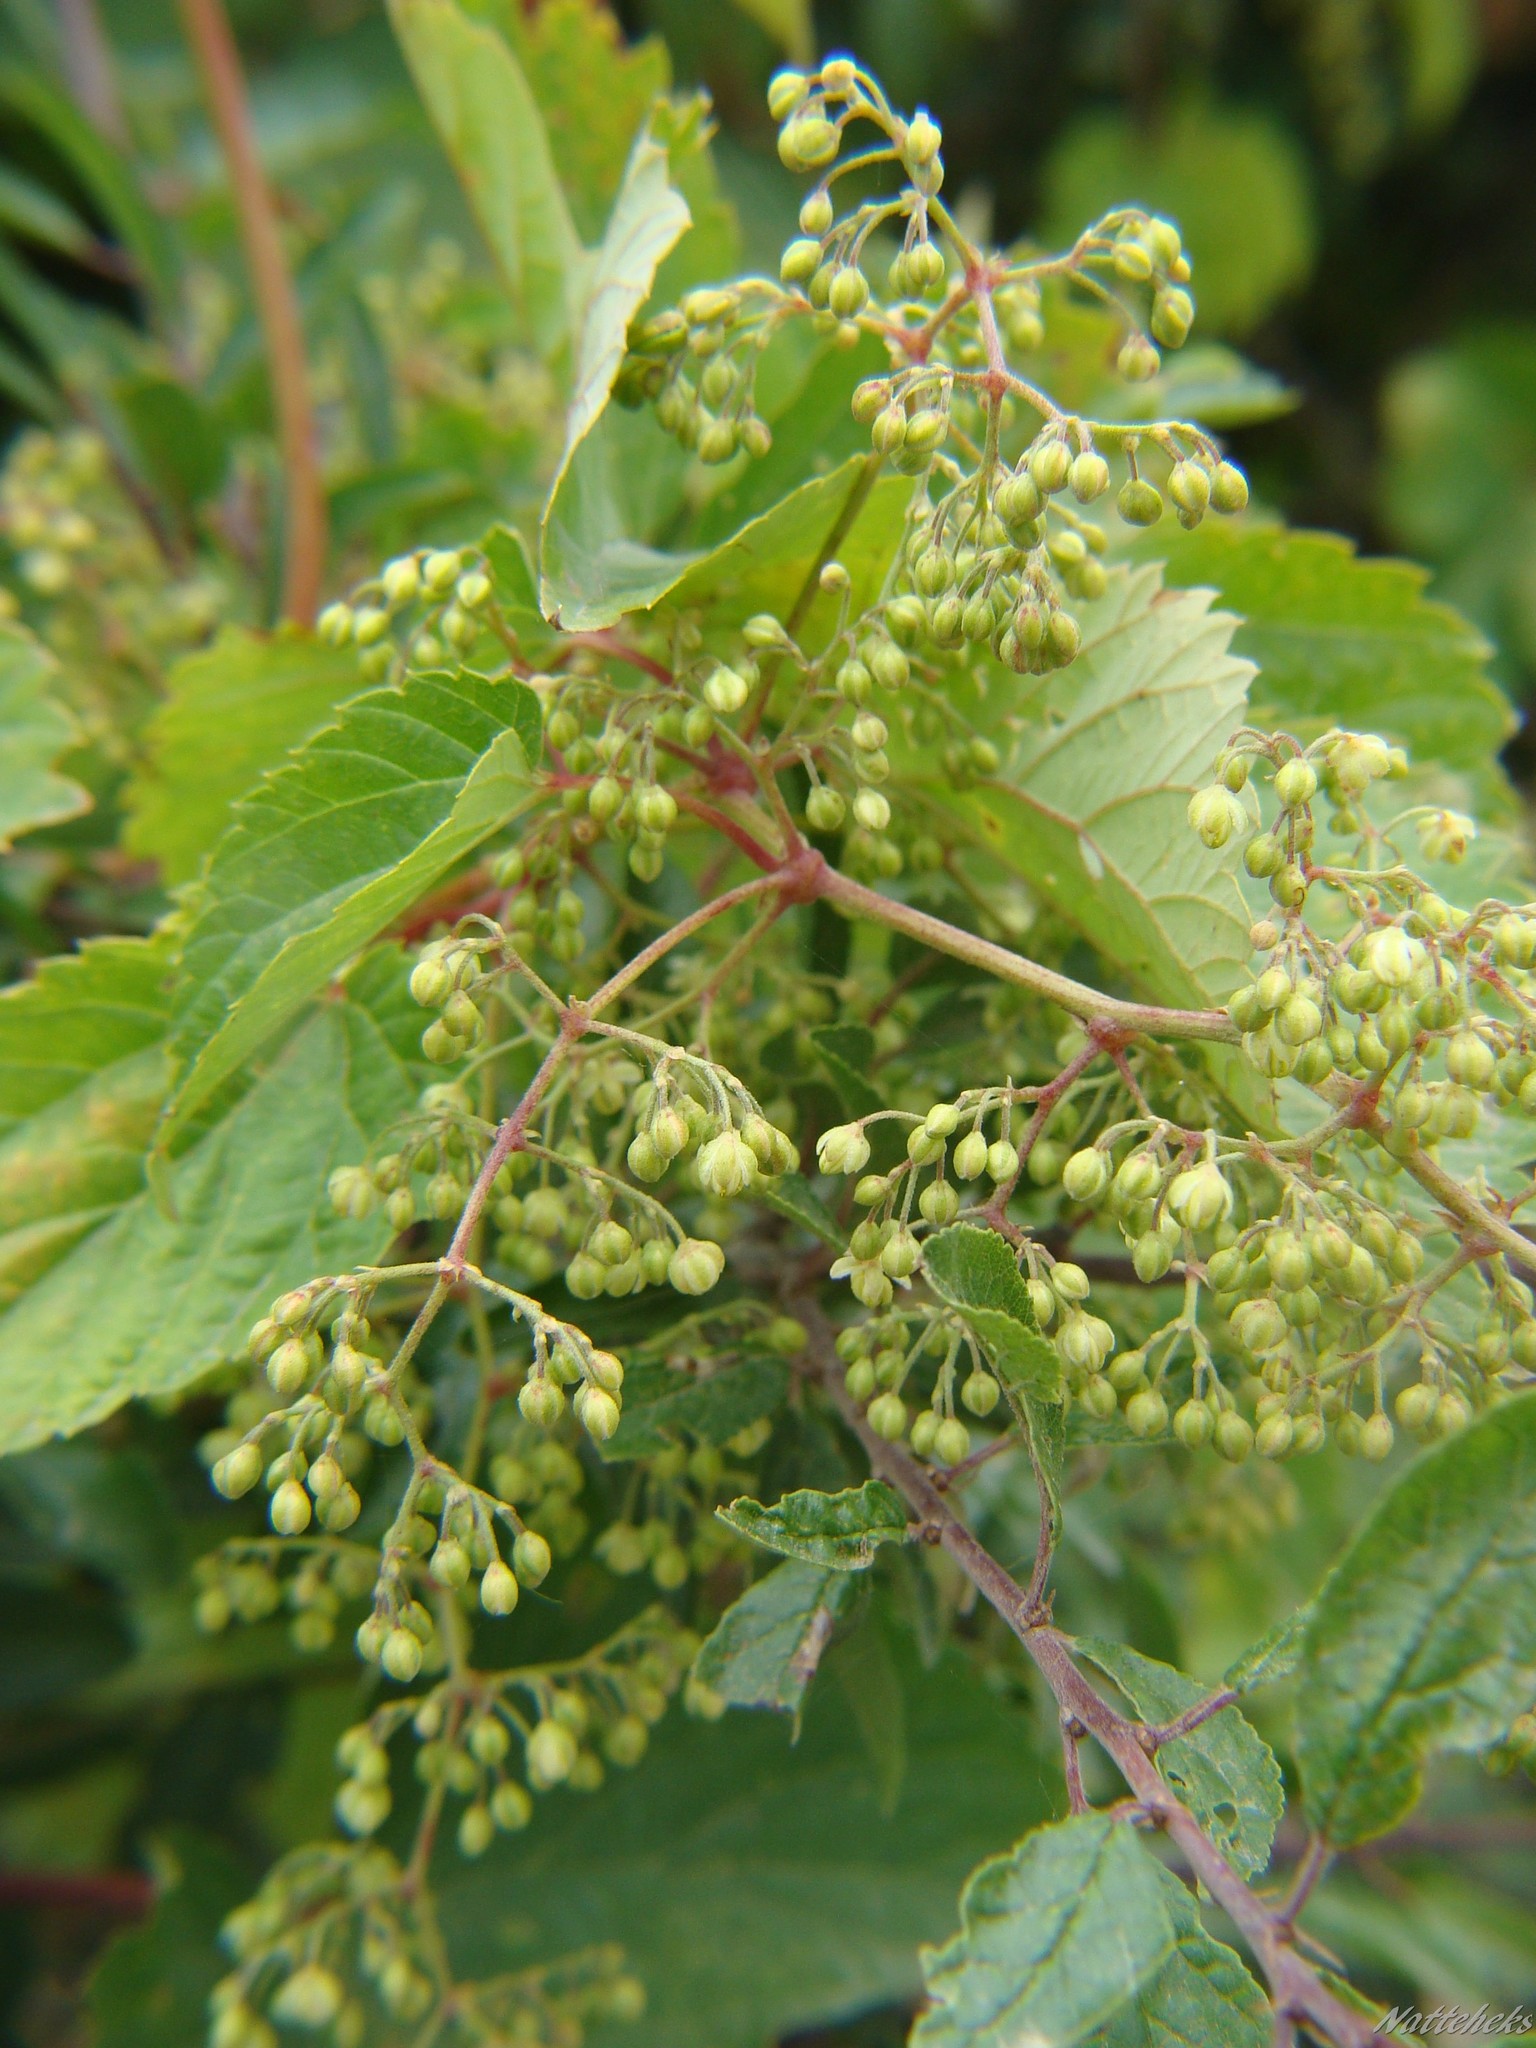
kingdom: Plantae
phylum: Tracheophyta
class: Magnoliopsida
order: Rosales
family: Cannabaceae
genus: Humulus
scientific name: Humulus lupulus
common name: Hop
